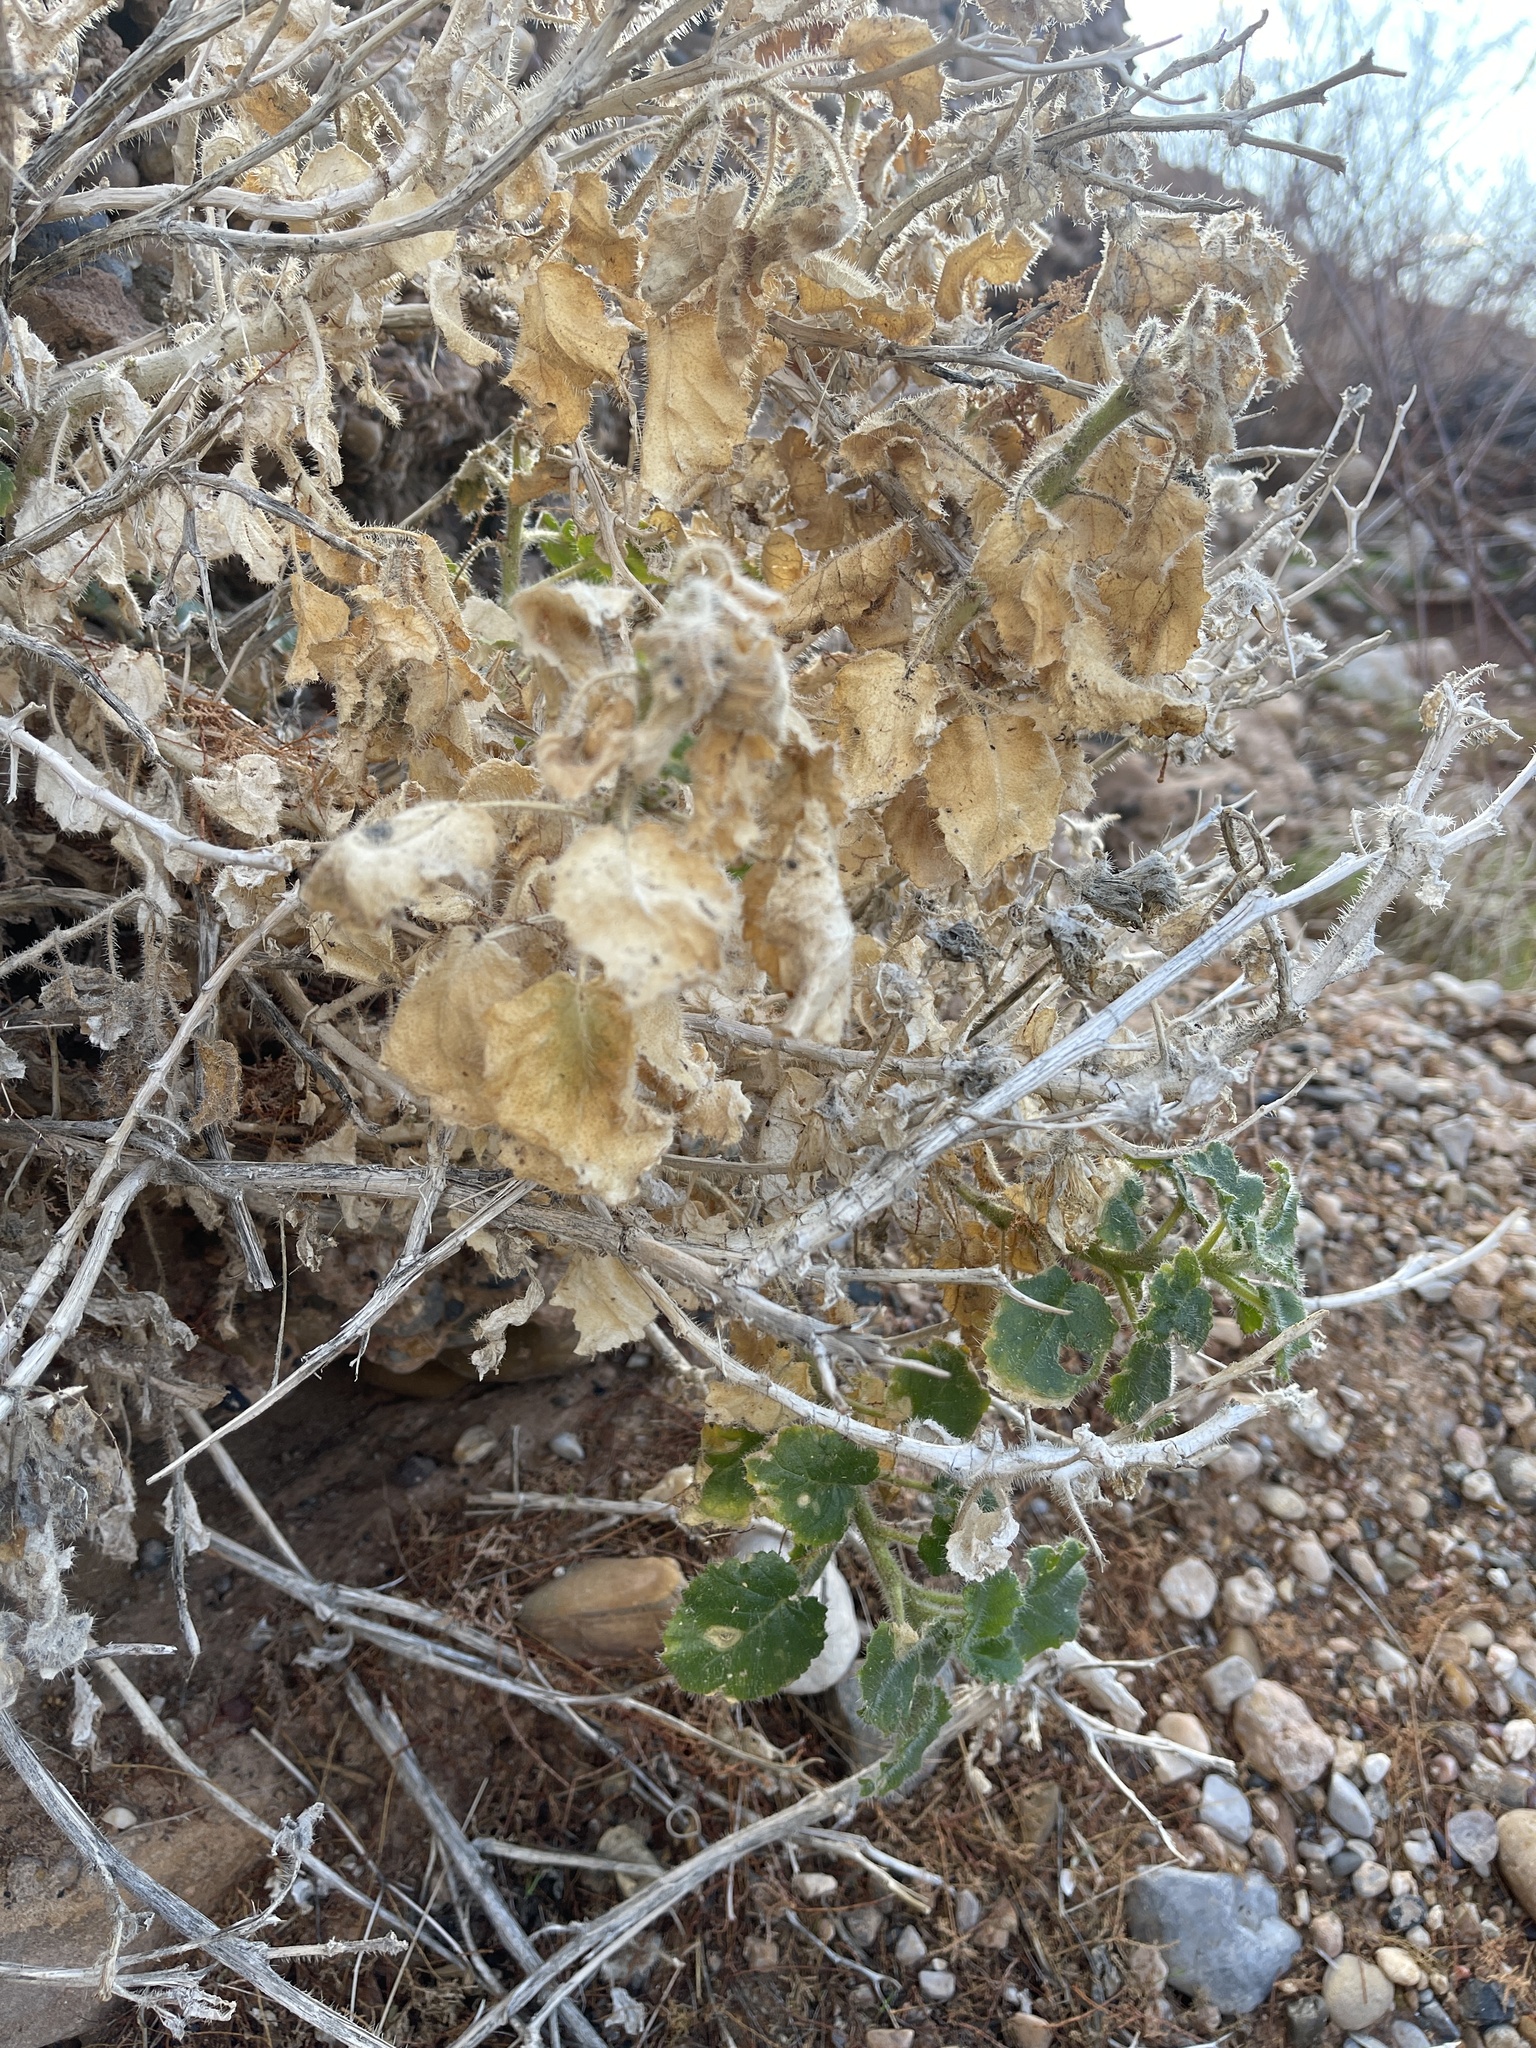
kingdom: Plantae
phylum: Tracheophyta
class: Magnoliopsida
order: Cornales
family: Loasaceae
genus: Eucnide
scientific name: Eucnide urens
